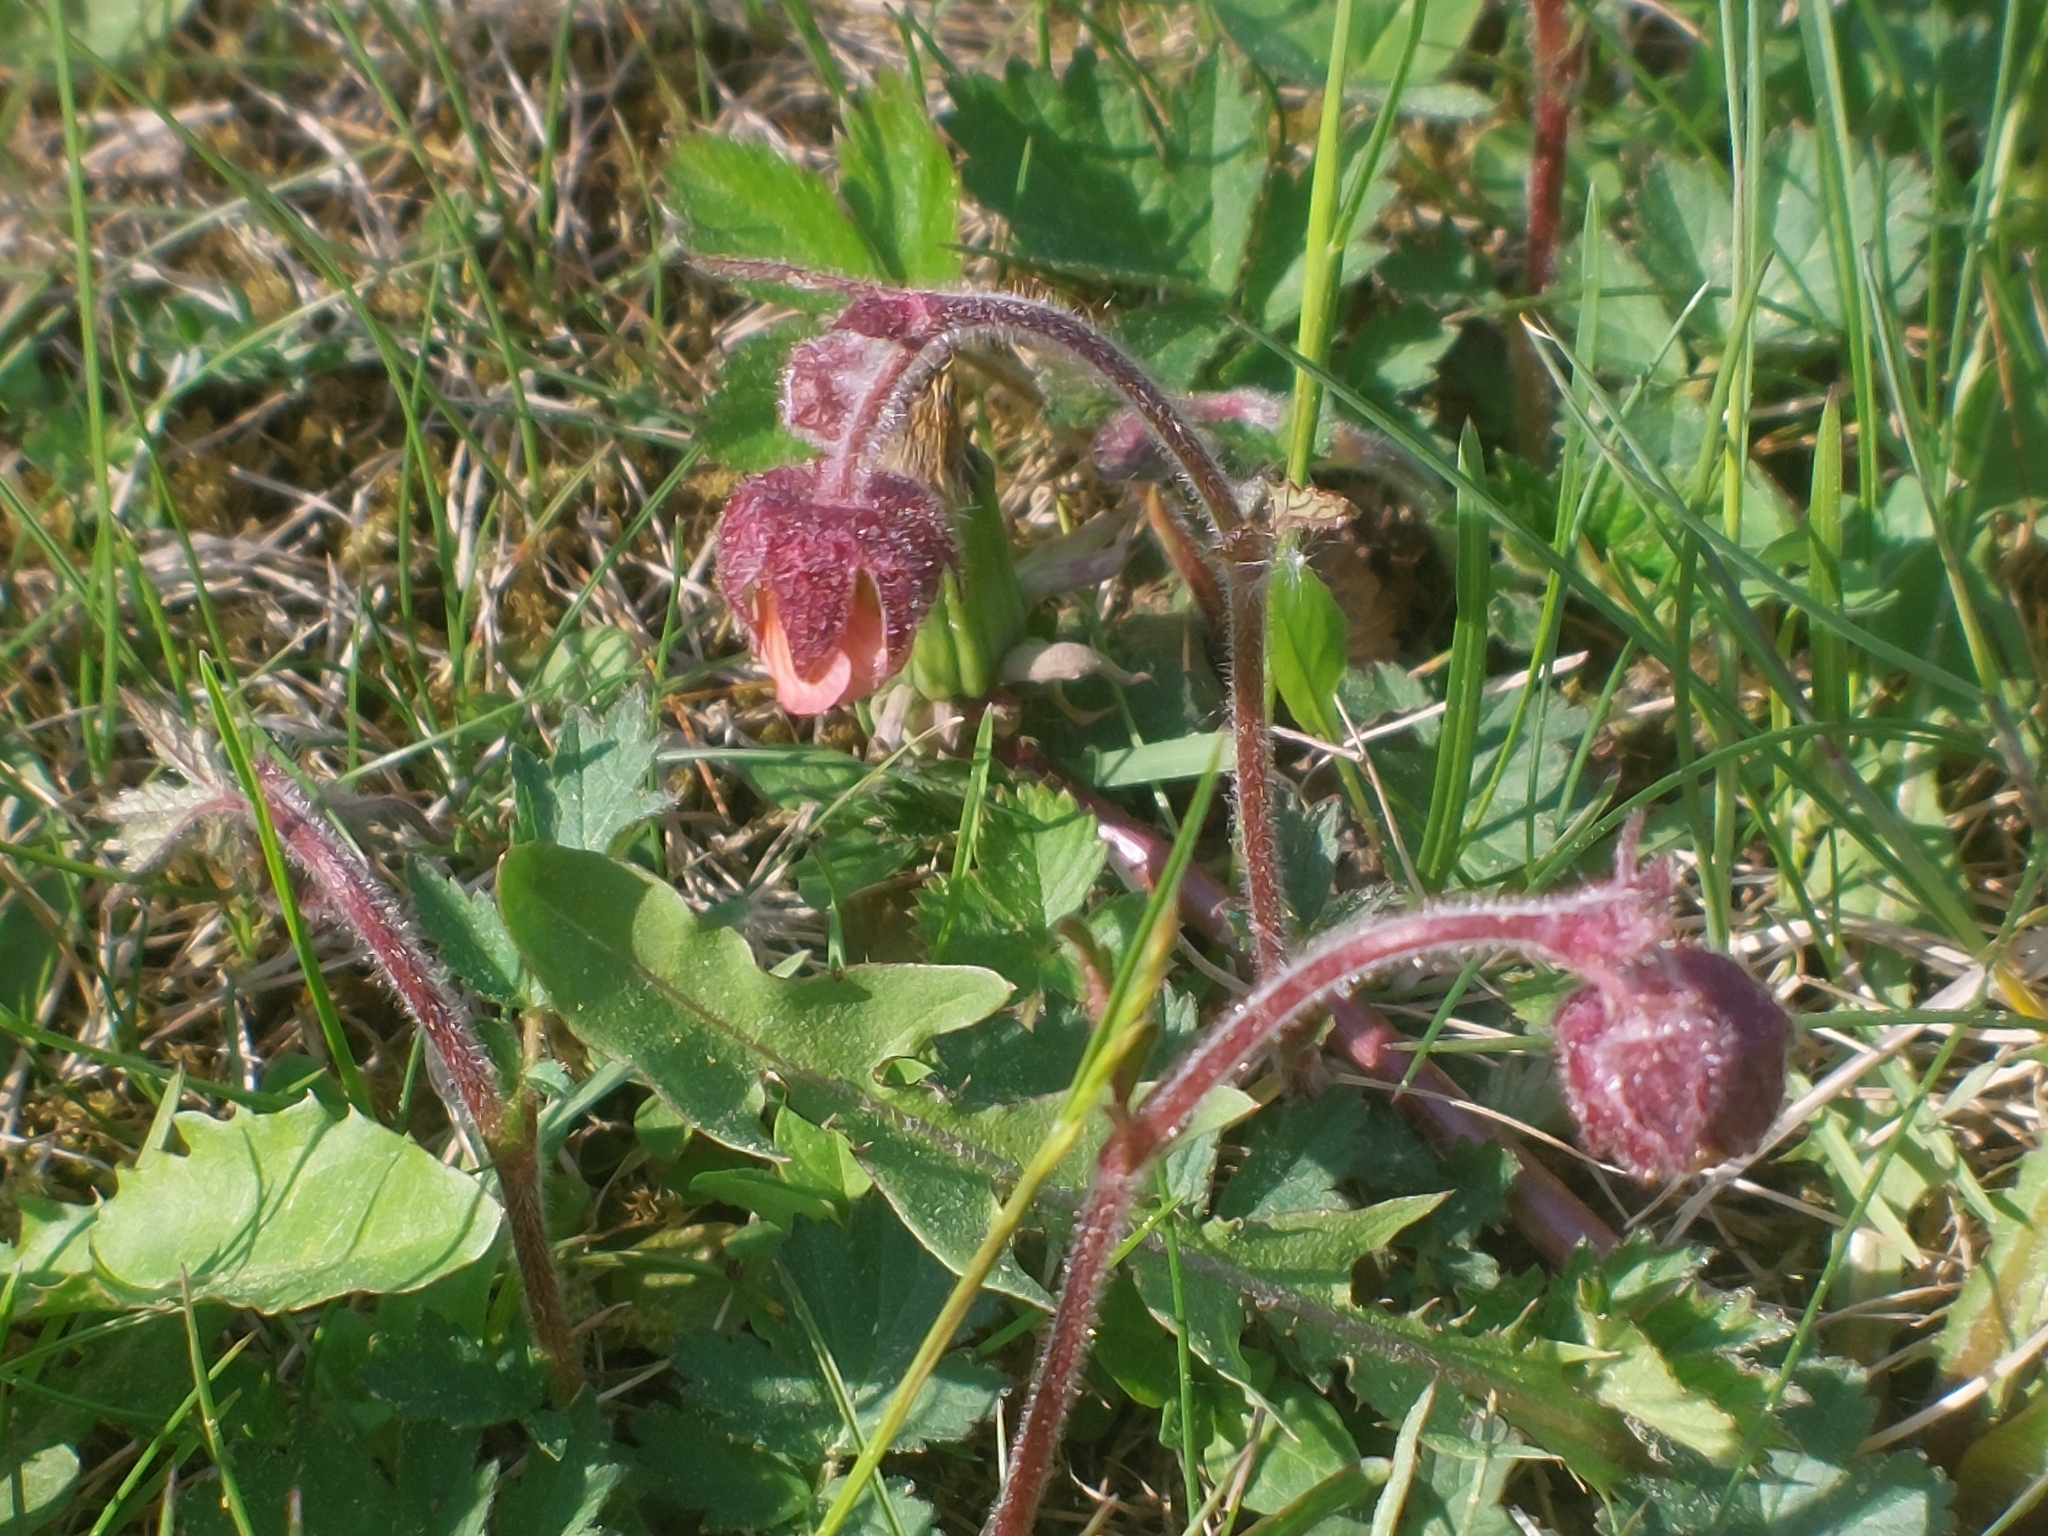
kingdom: Plantae
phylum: Tracheophyta
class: Magnoliopsida
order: Rosales
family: Rosaceae
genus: Geum
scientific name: Geum rivale
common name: Water avens
